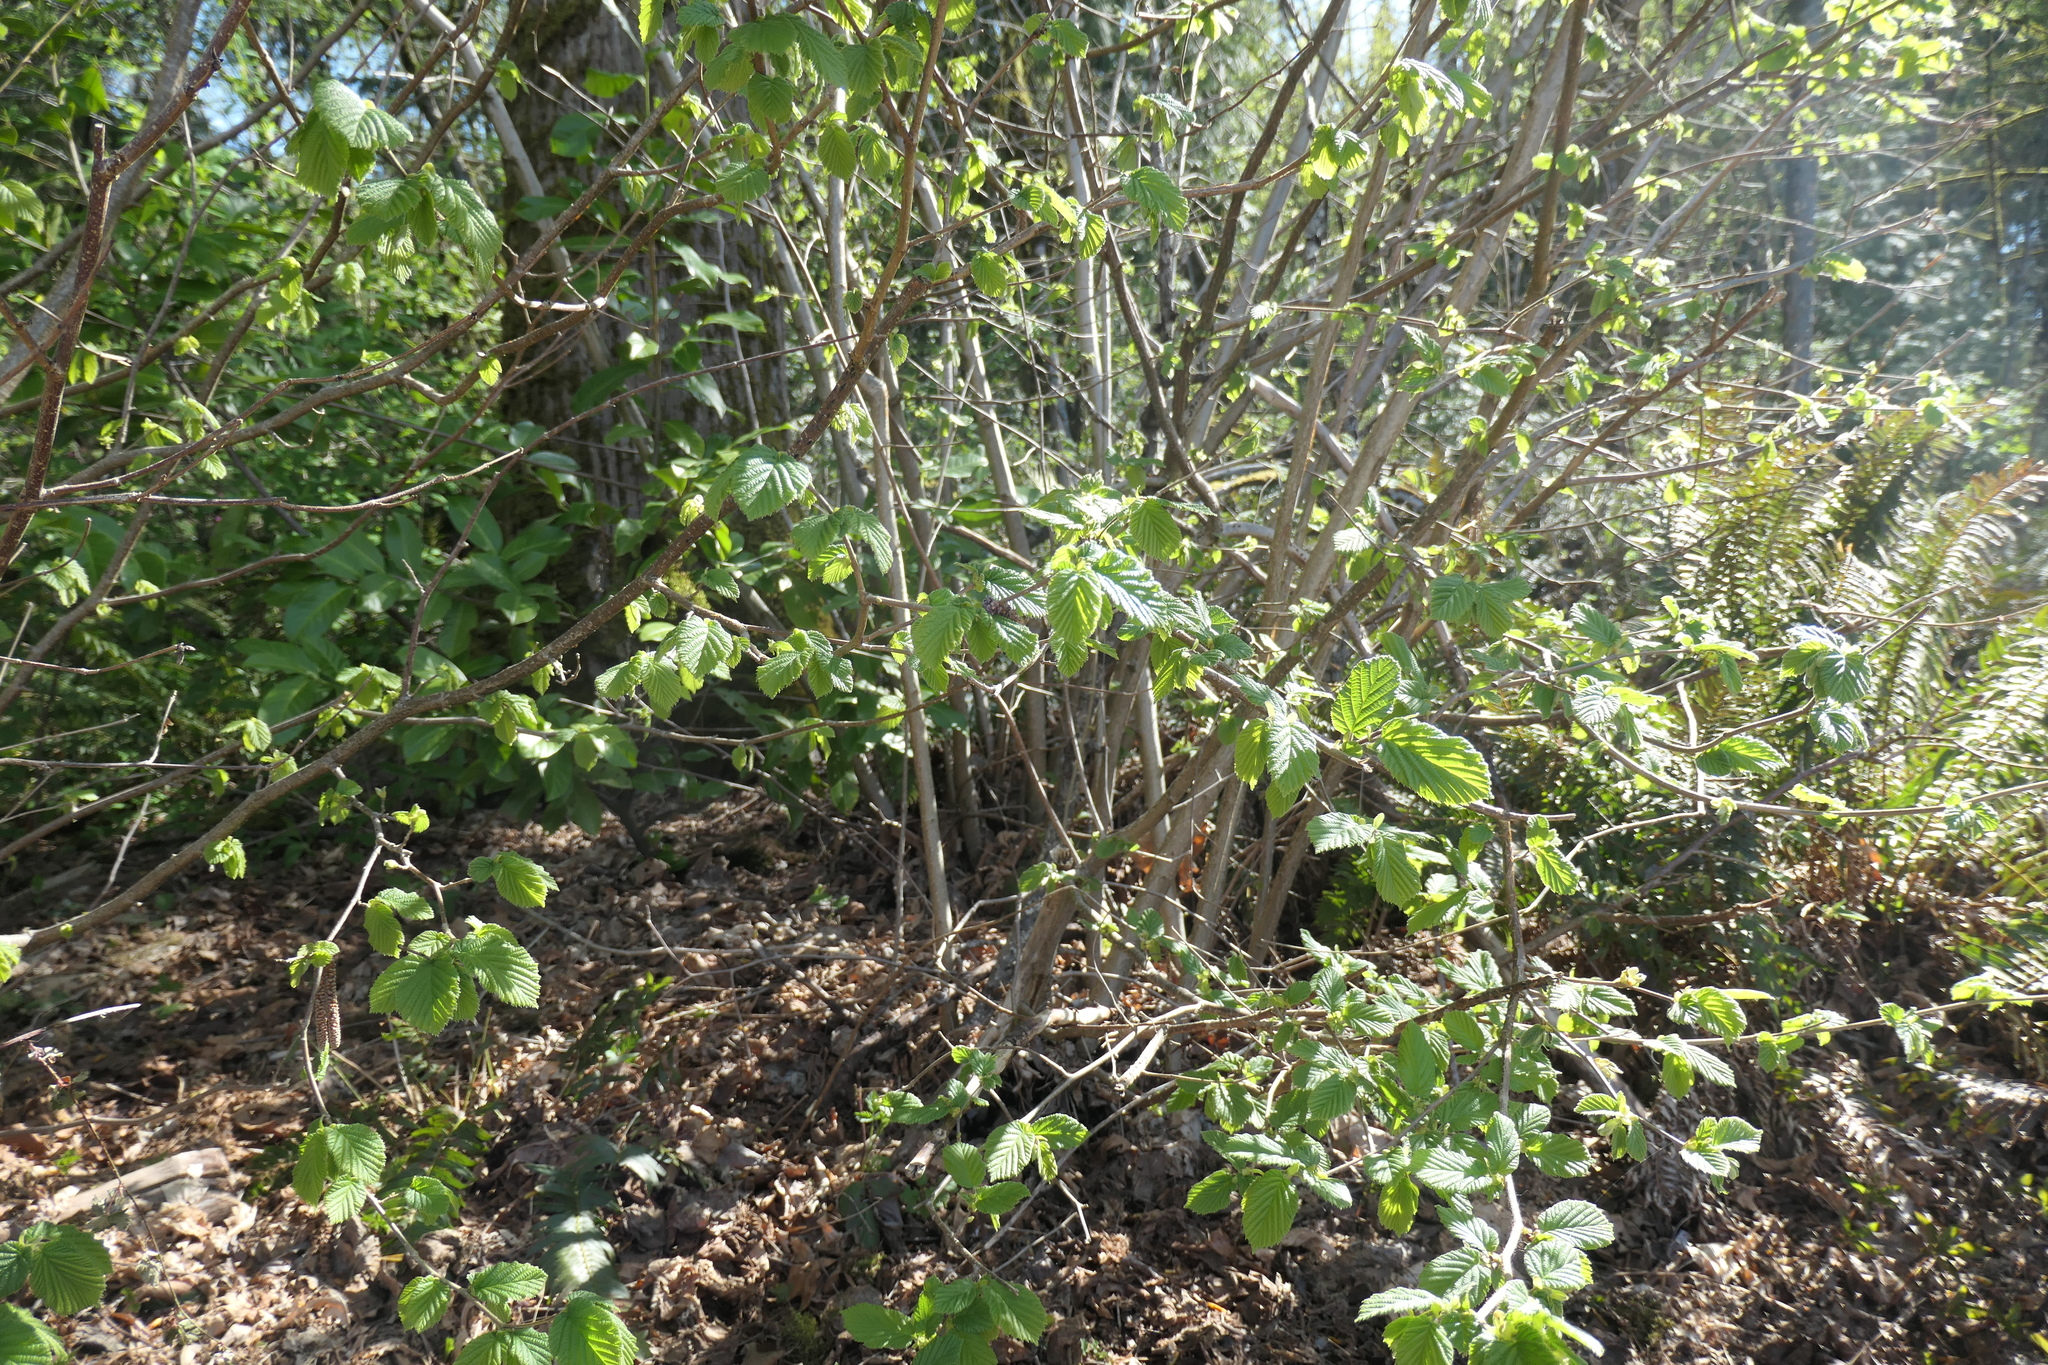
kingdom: Plantae
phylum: Tracheophyta
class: Magnoliopsida
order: Fagales
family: Betulaceae
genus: Alnus
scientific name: Alnus rubra
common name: Red alder
